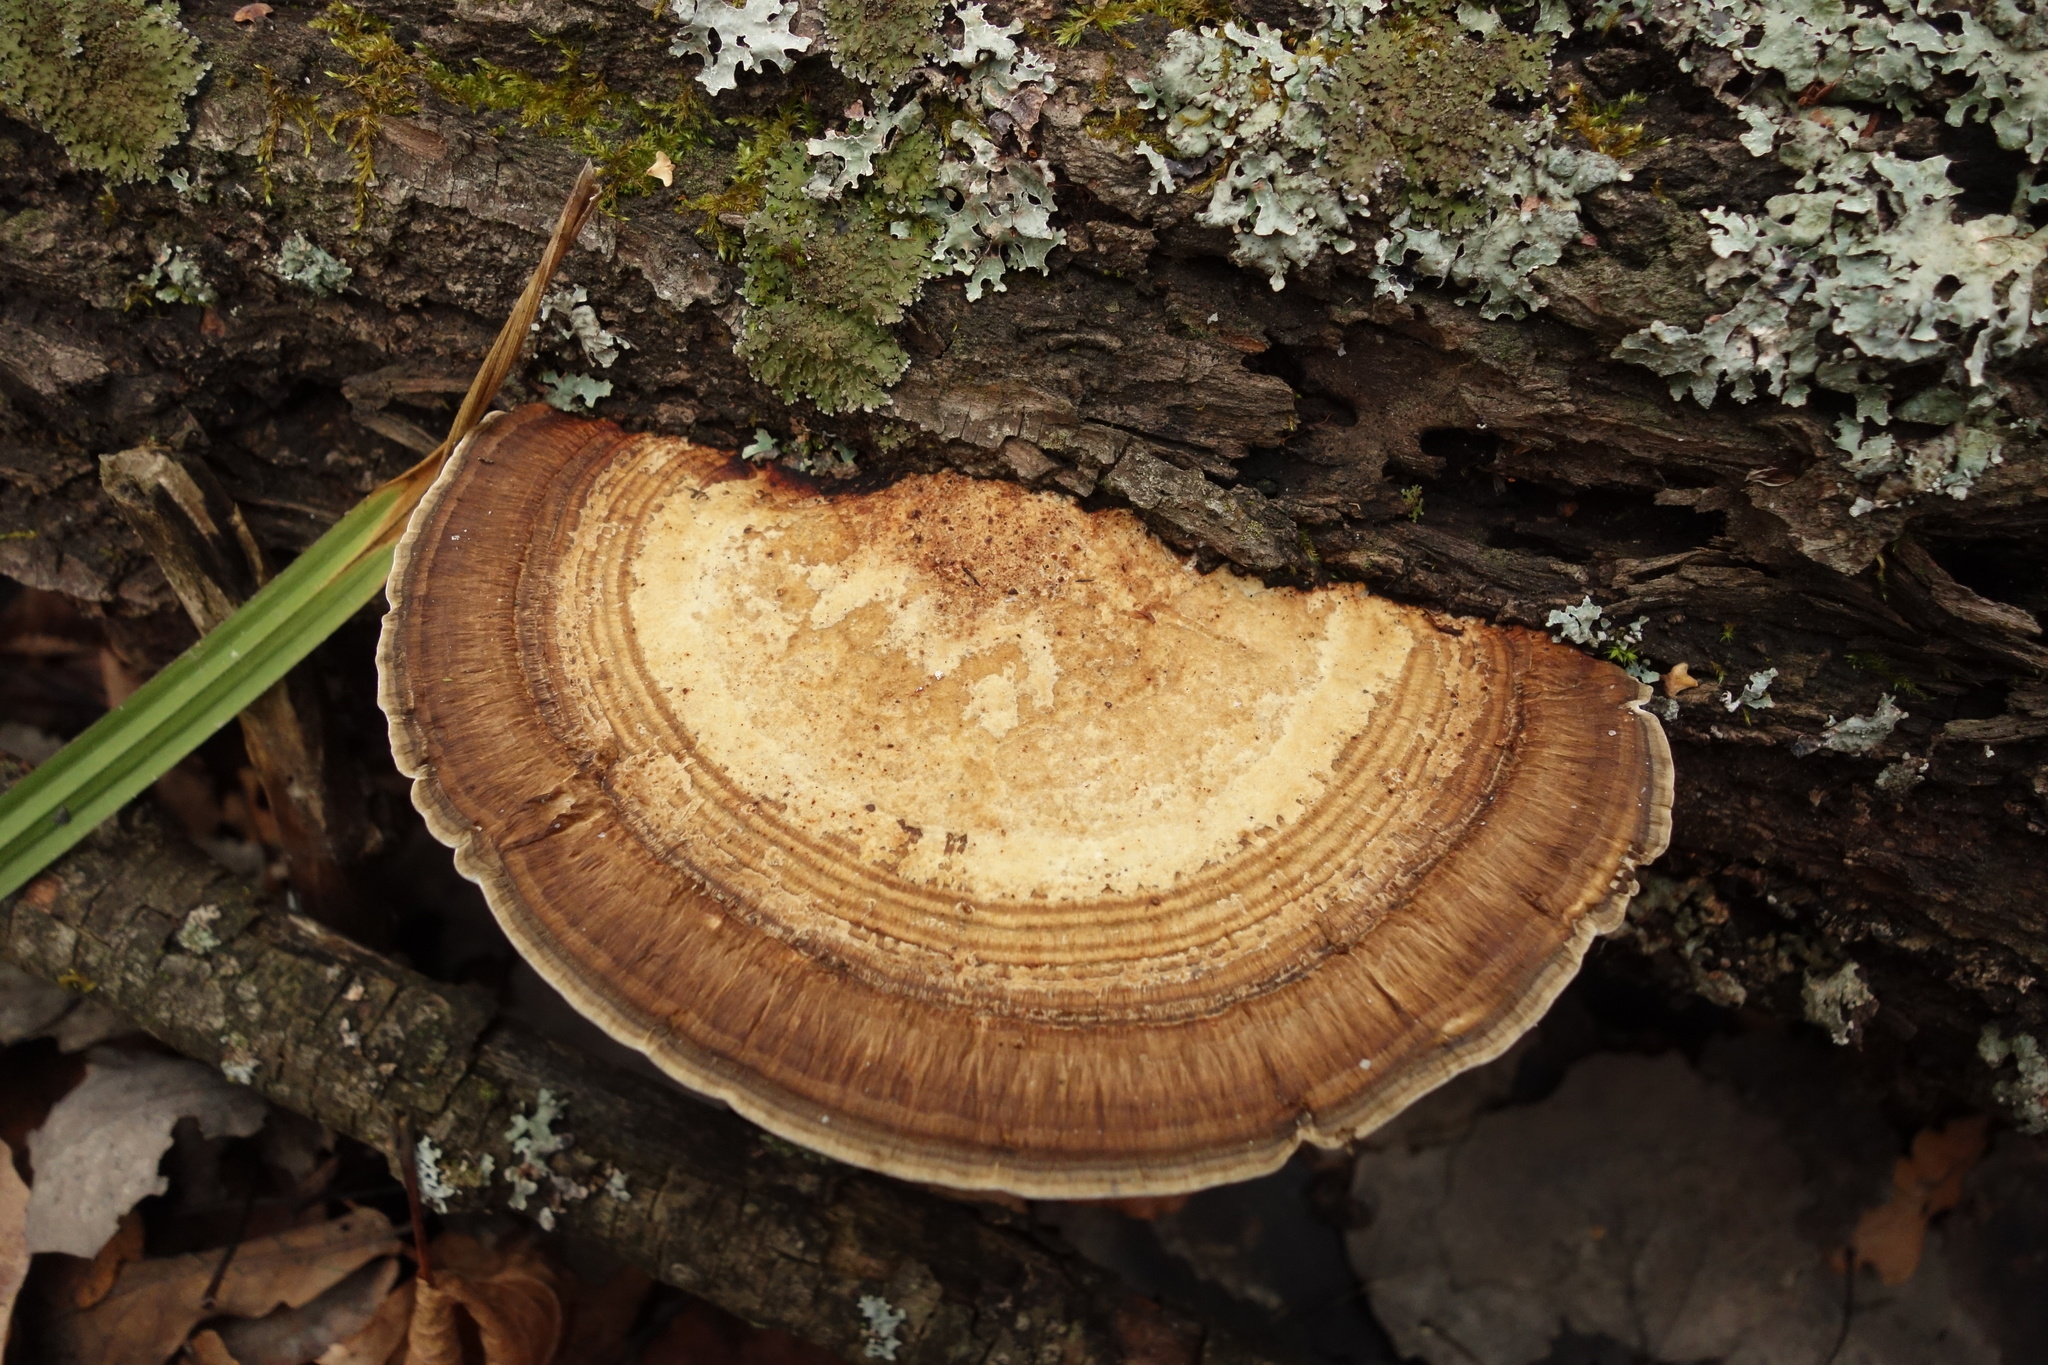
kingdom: Fungi
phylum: Basidiomycota
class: Agaricomycetes
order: Polyporales
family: Polyporaceae
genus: Daedaleopsis
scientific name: Daedaleopsis confragosa
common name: Blushing bracket
